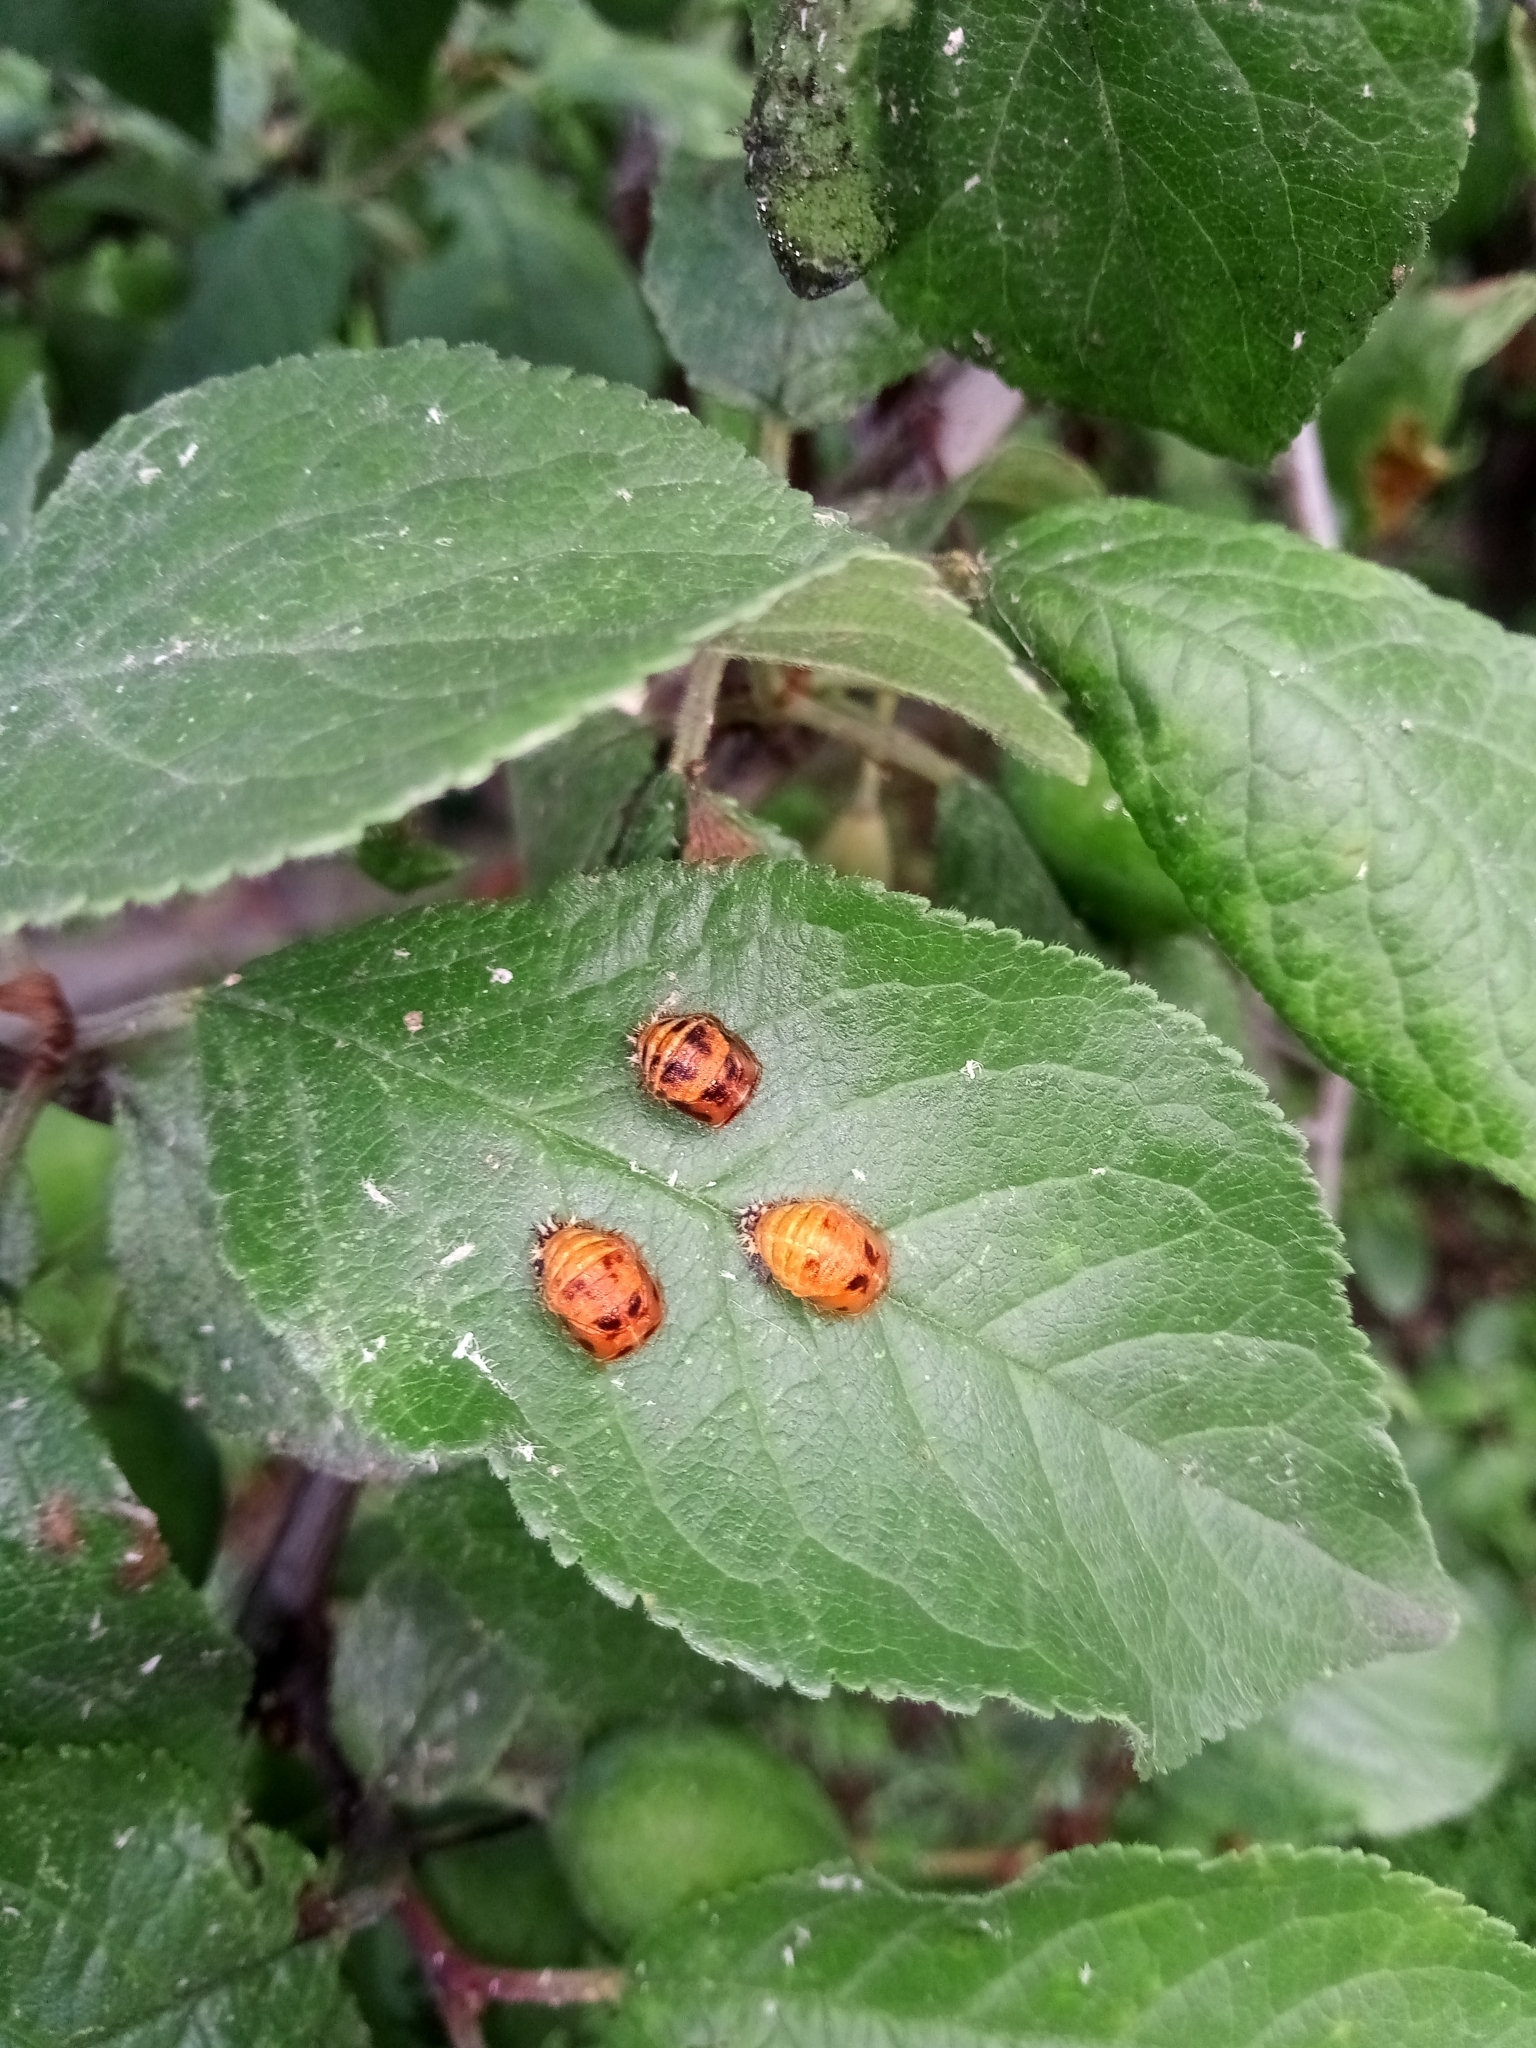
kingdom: Animalia
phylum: Arthropoda
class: Insecta
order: Coleoptera
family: Coccinellidae
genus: Harmonia
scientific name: Harmonia axyridis
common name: Harlequin ladybird
